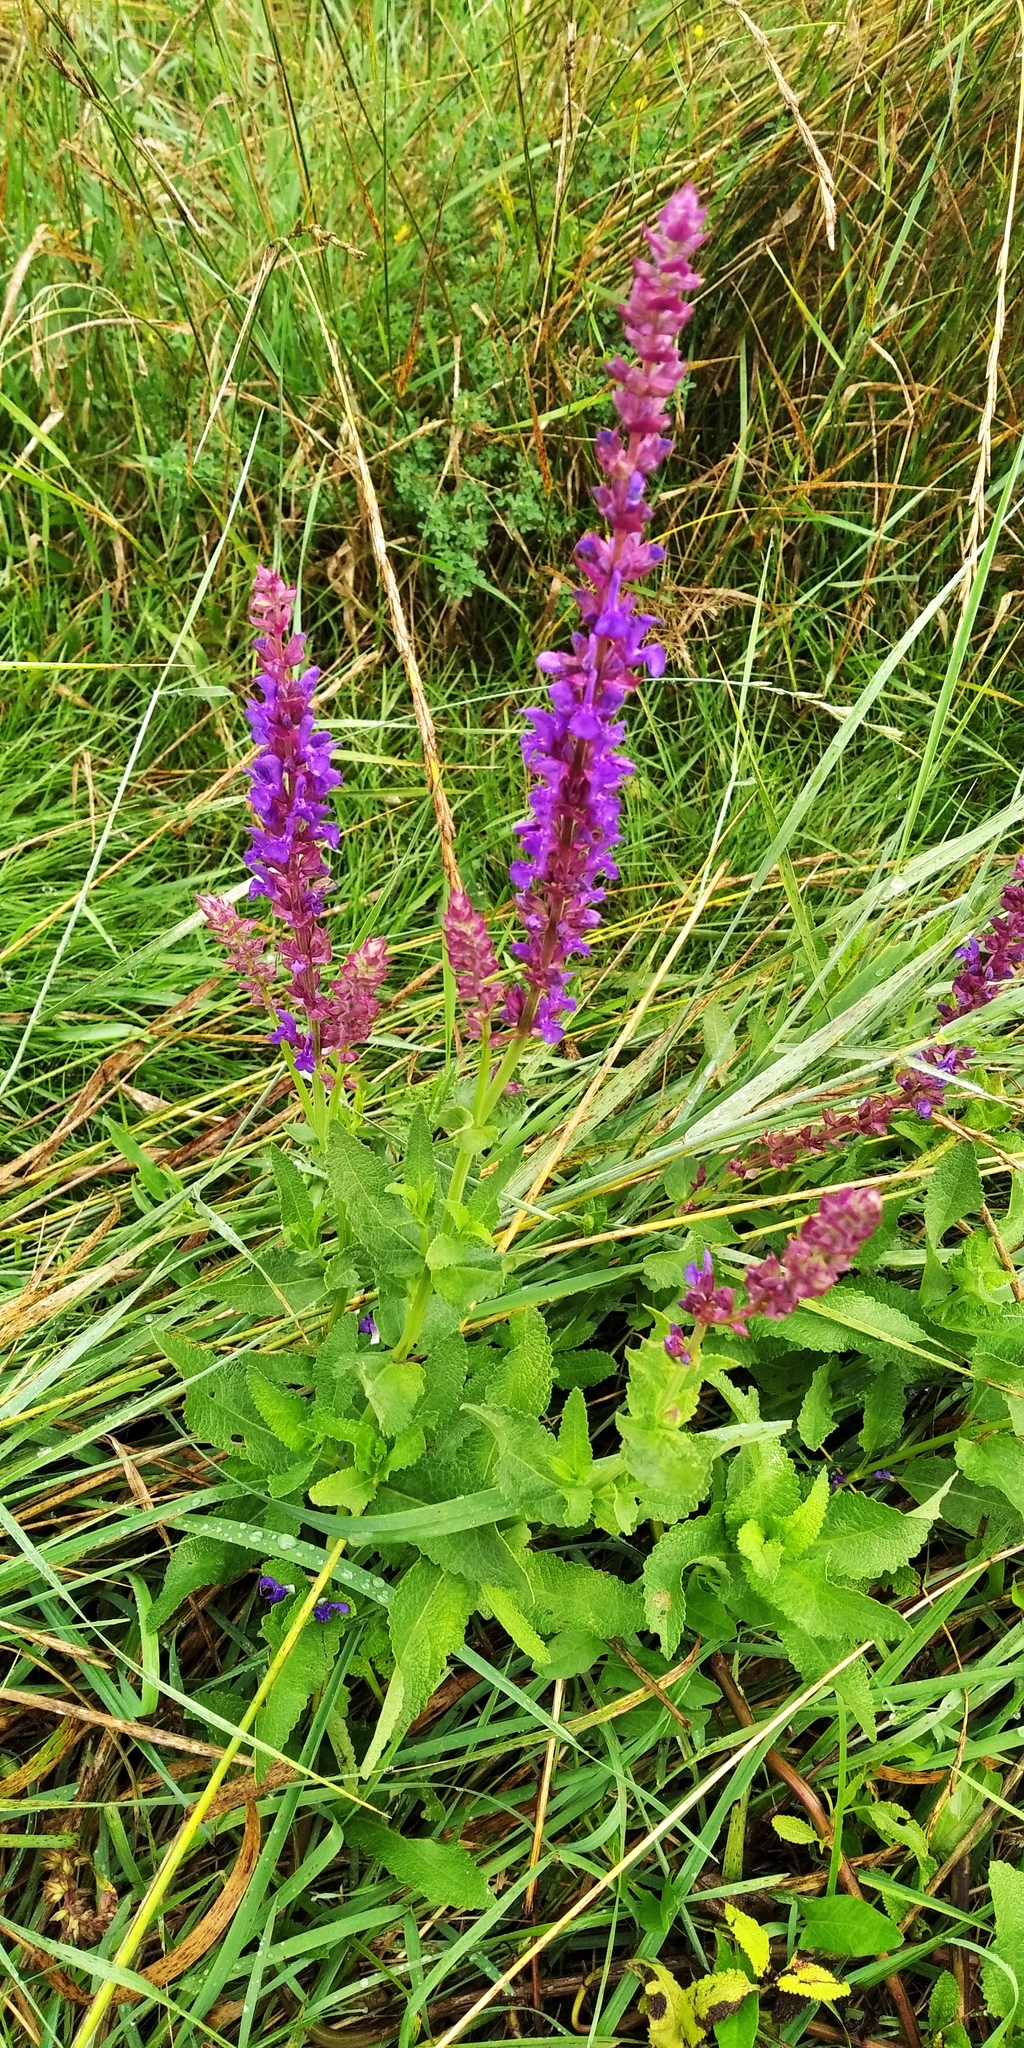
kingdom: Plantae
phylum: Tracheophyta
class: Magnoliopsida
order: Lamiales
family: Lamiaceae
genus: Salvia
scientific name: Salvia nemorosa
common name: Balkan clary
